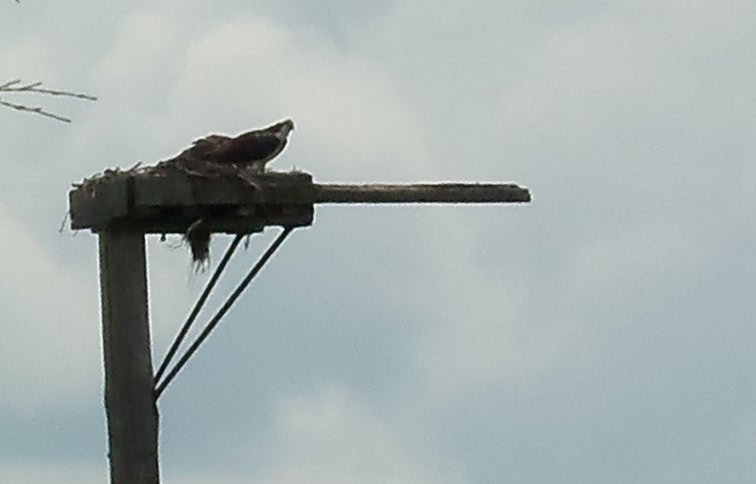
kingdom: Animalia
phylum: Chordata
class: Aves
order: Accipitriformes
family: Pandionidae
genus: Pandion
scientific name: Pandion haliaetus
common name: Osprey
